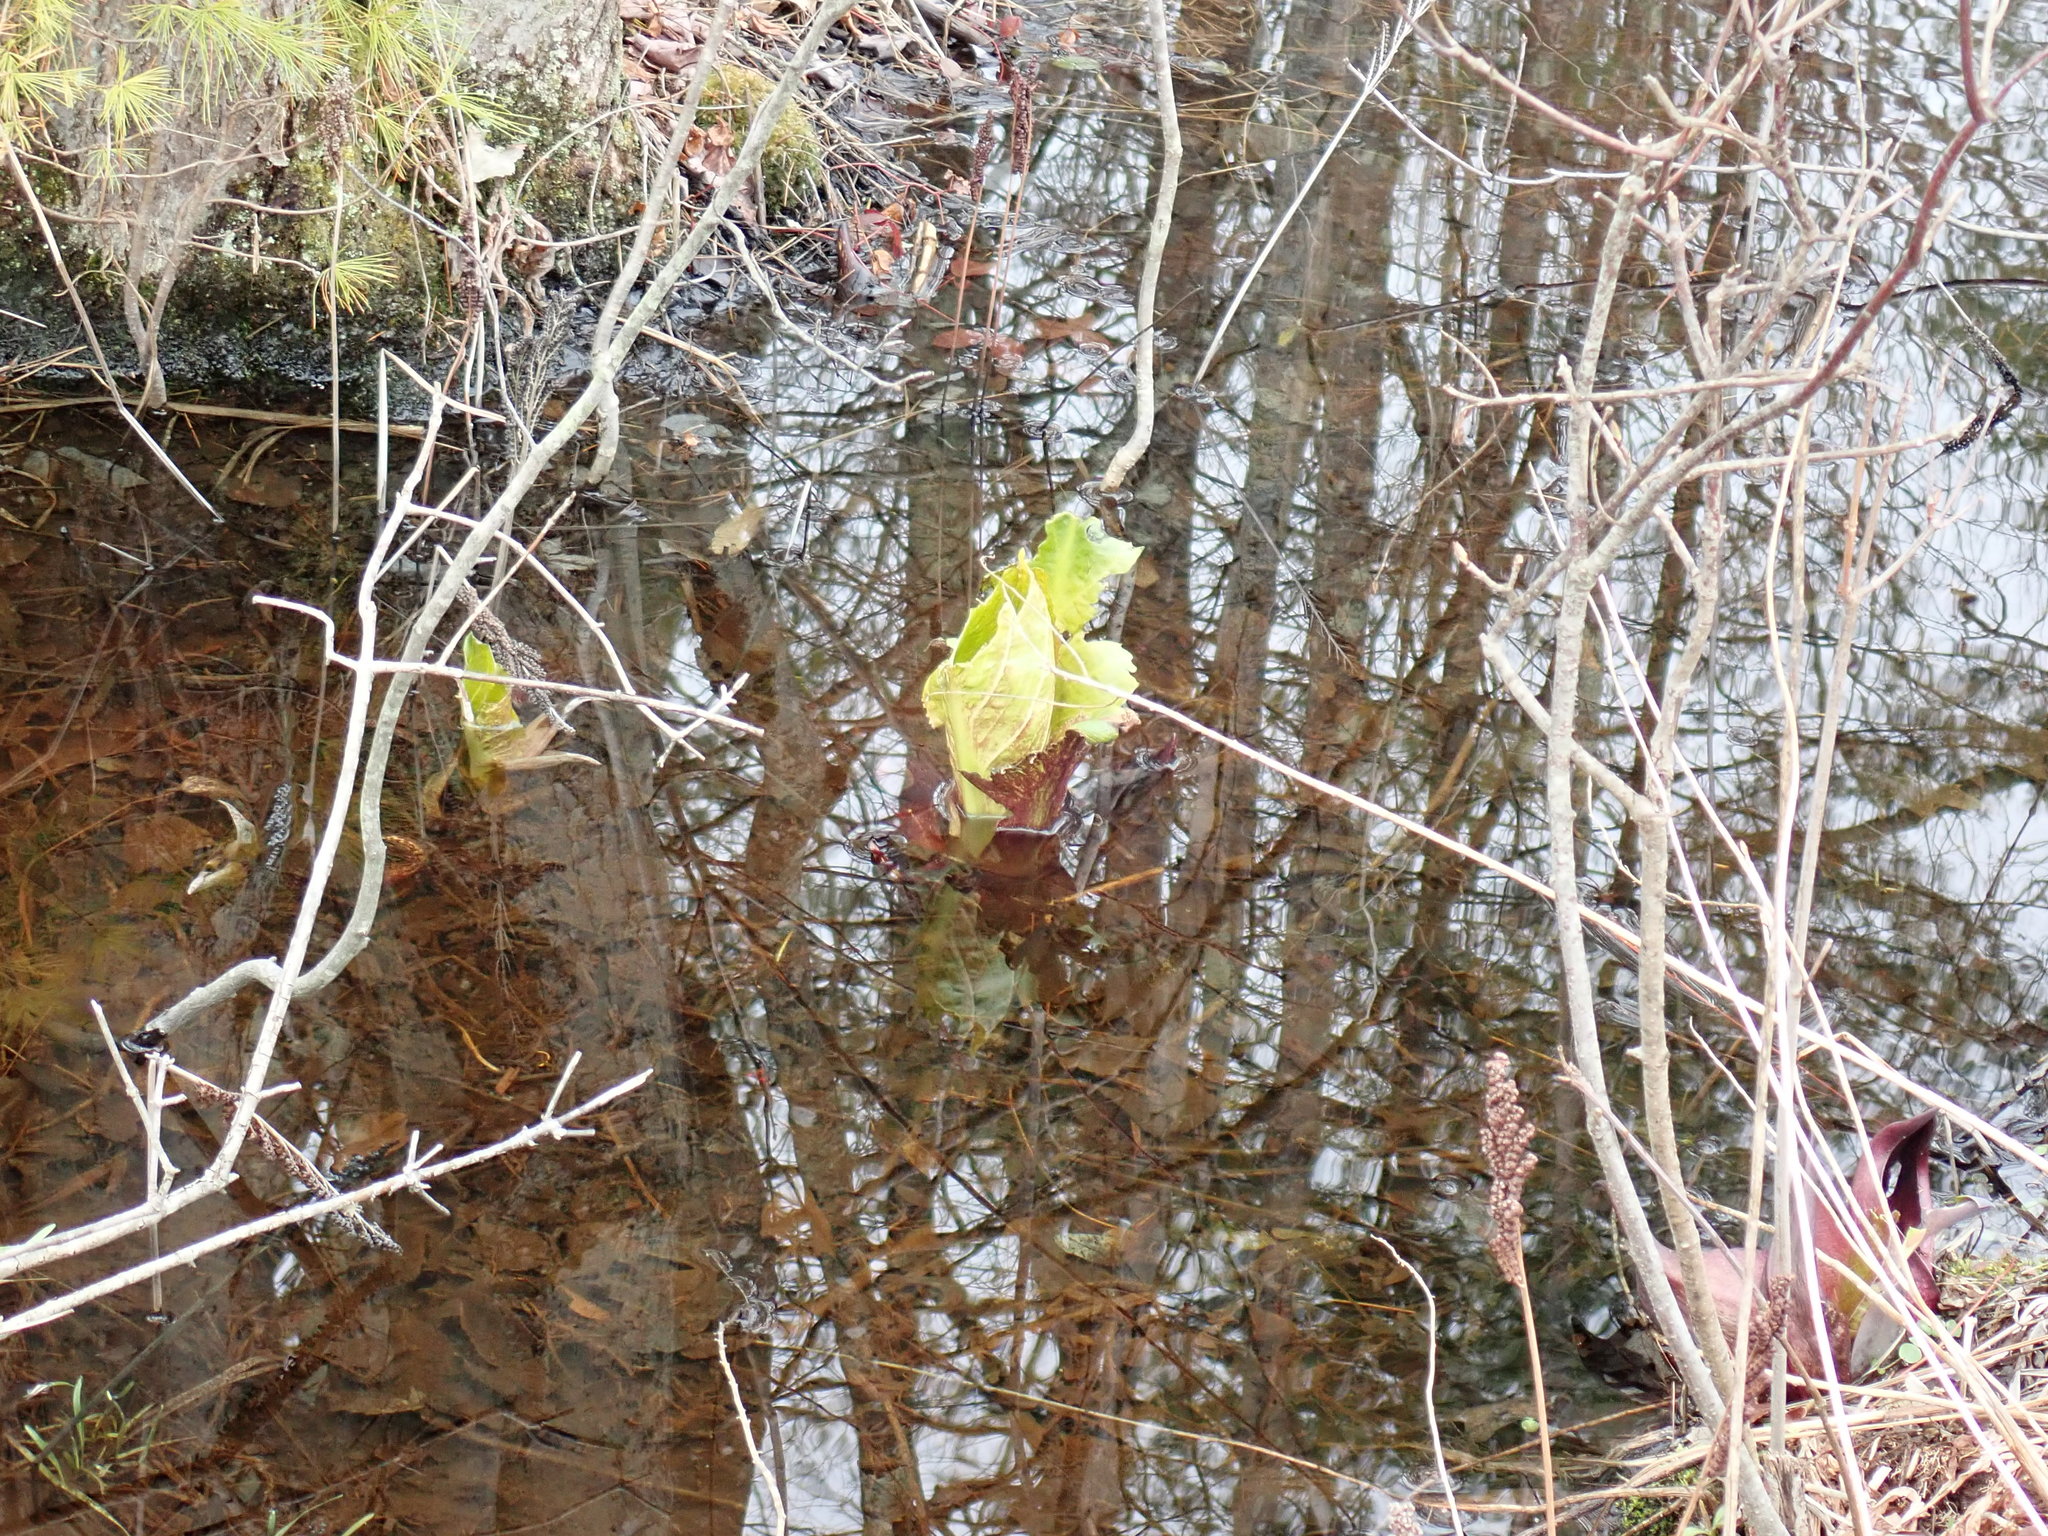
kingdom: Plantae
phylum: Tracheophyta
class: Liliopsida
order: Alismatales
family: Araceae
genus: Symplocarpus
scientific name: Symplocarpus foetidus
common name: Eastern skunk cabbage
